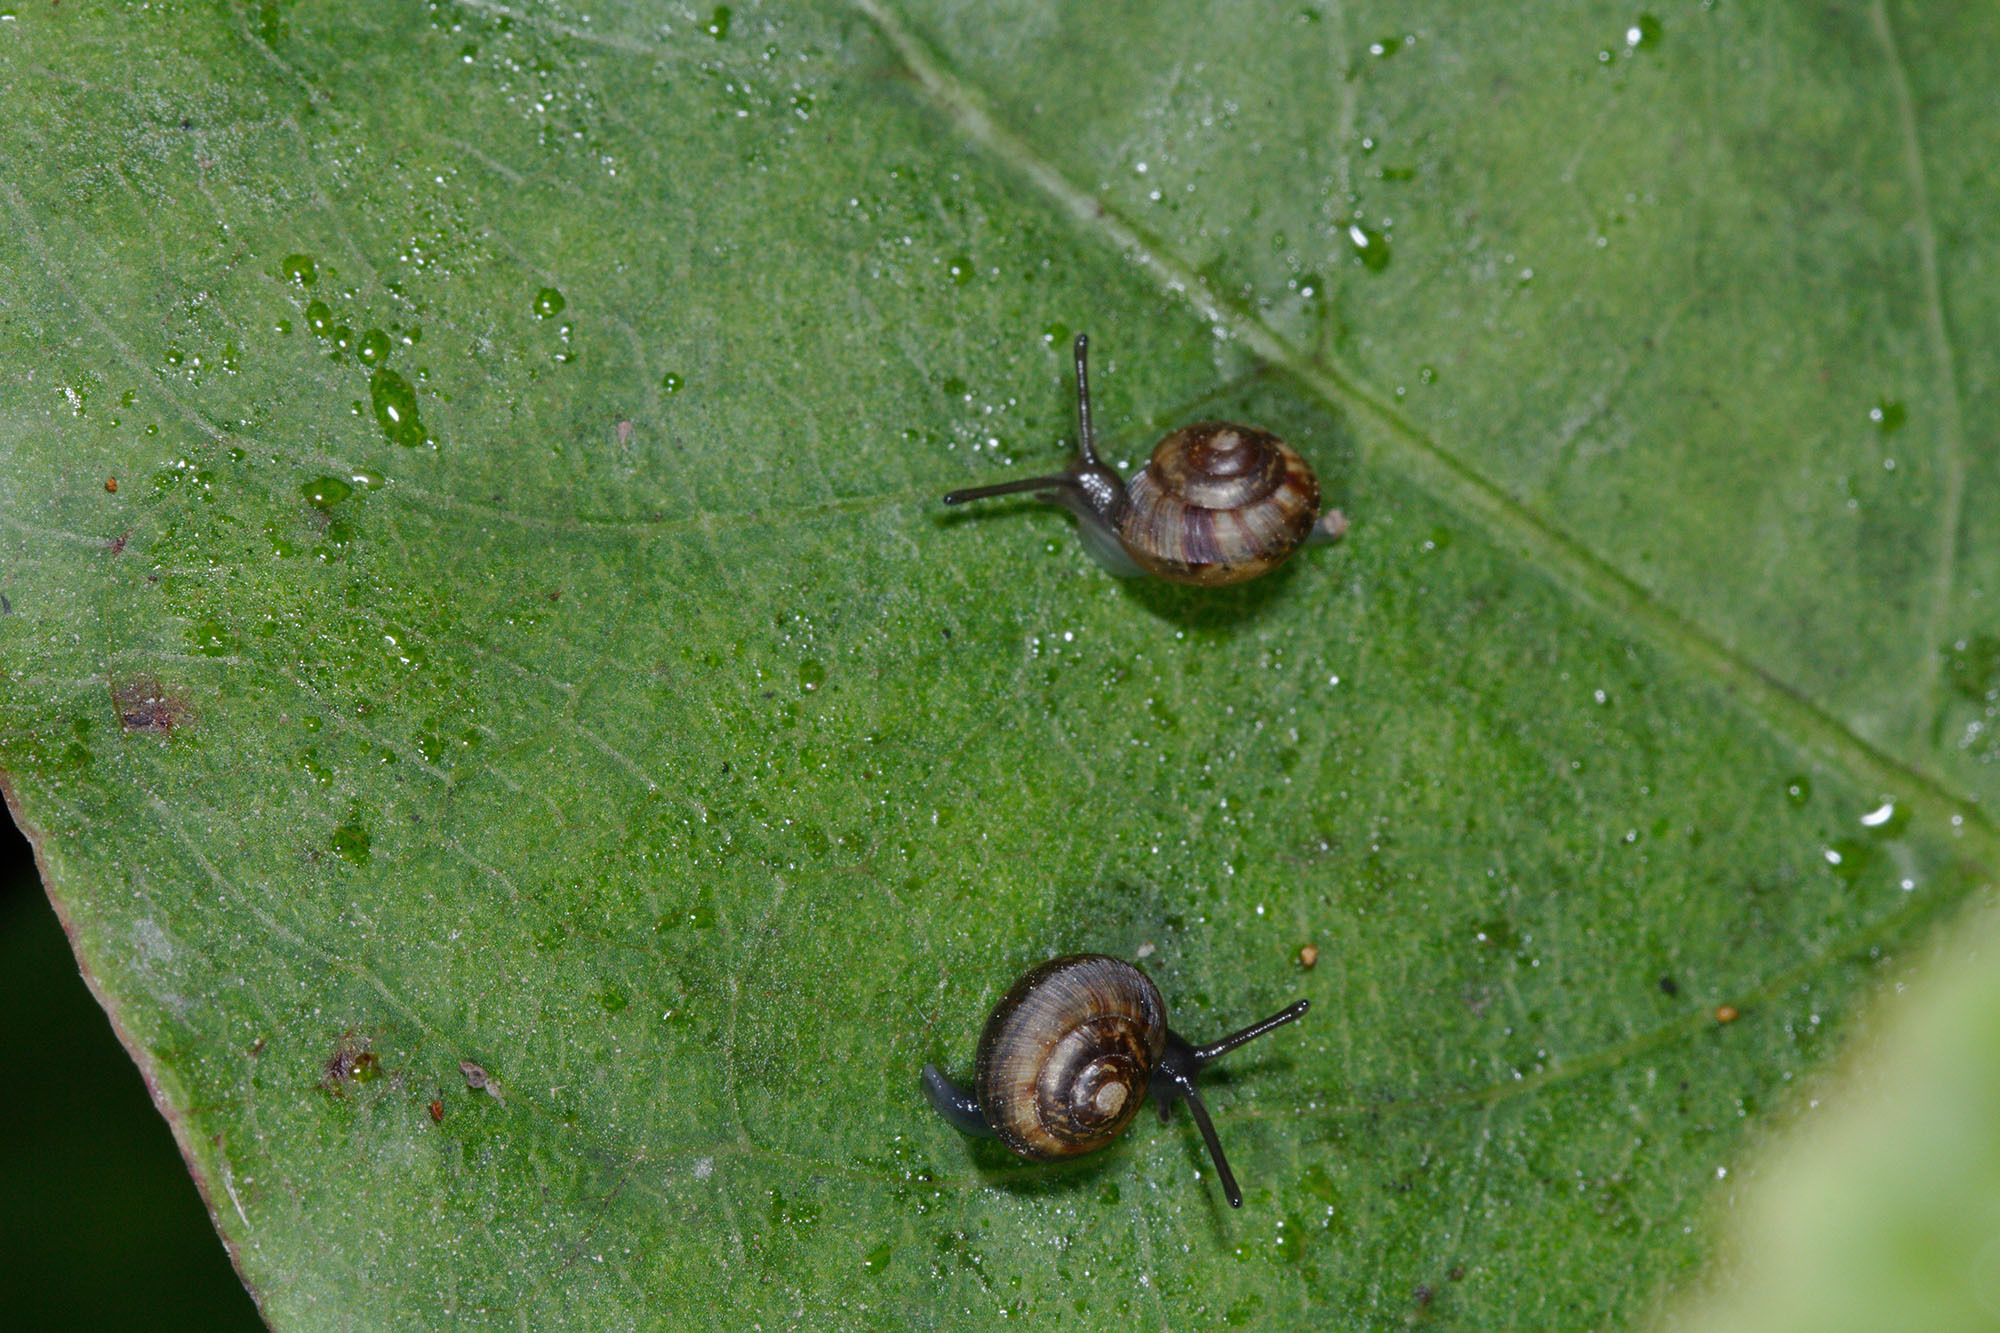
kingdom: Animalia
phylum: Mollusca
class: Gastropoda
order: Stylommatophora
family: Charopidae
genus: Serpho
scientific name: Serpho
